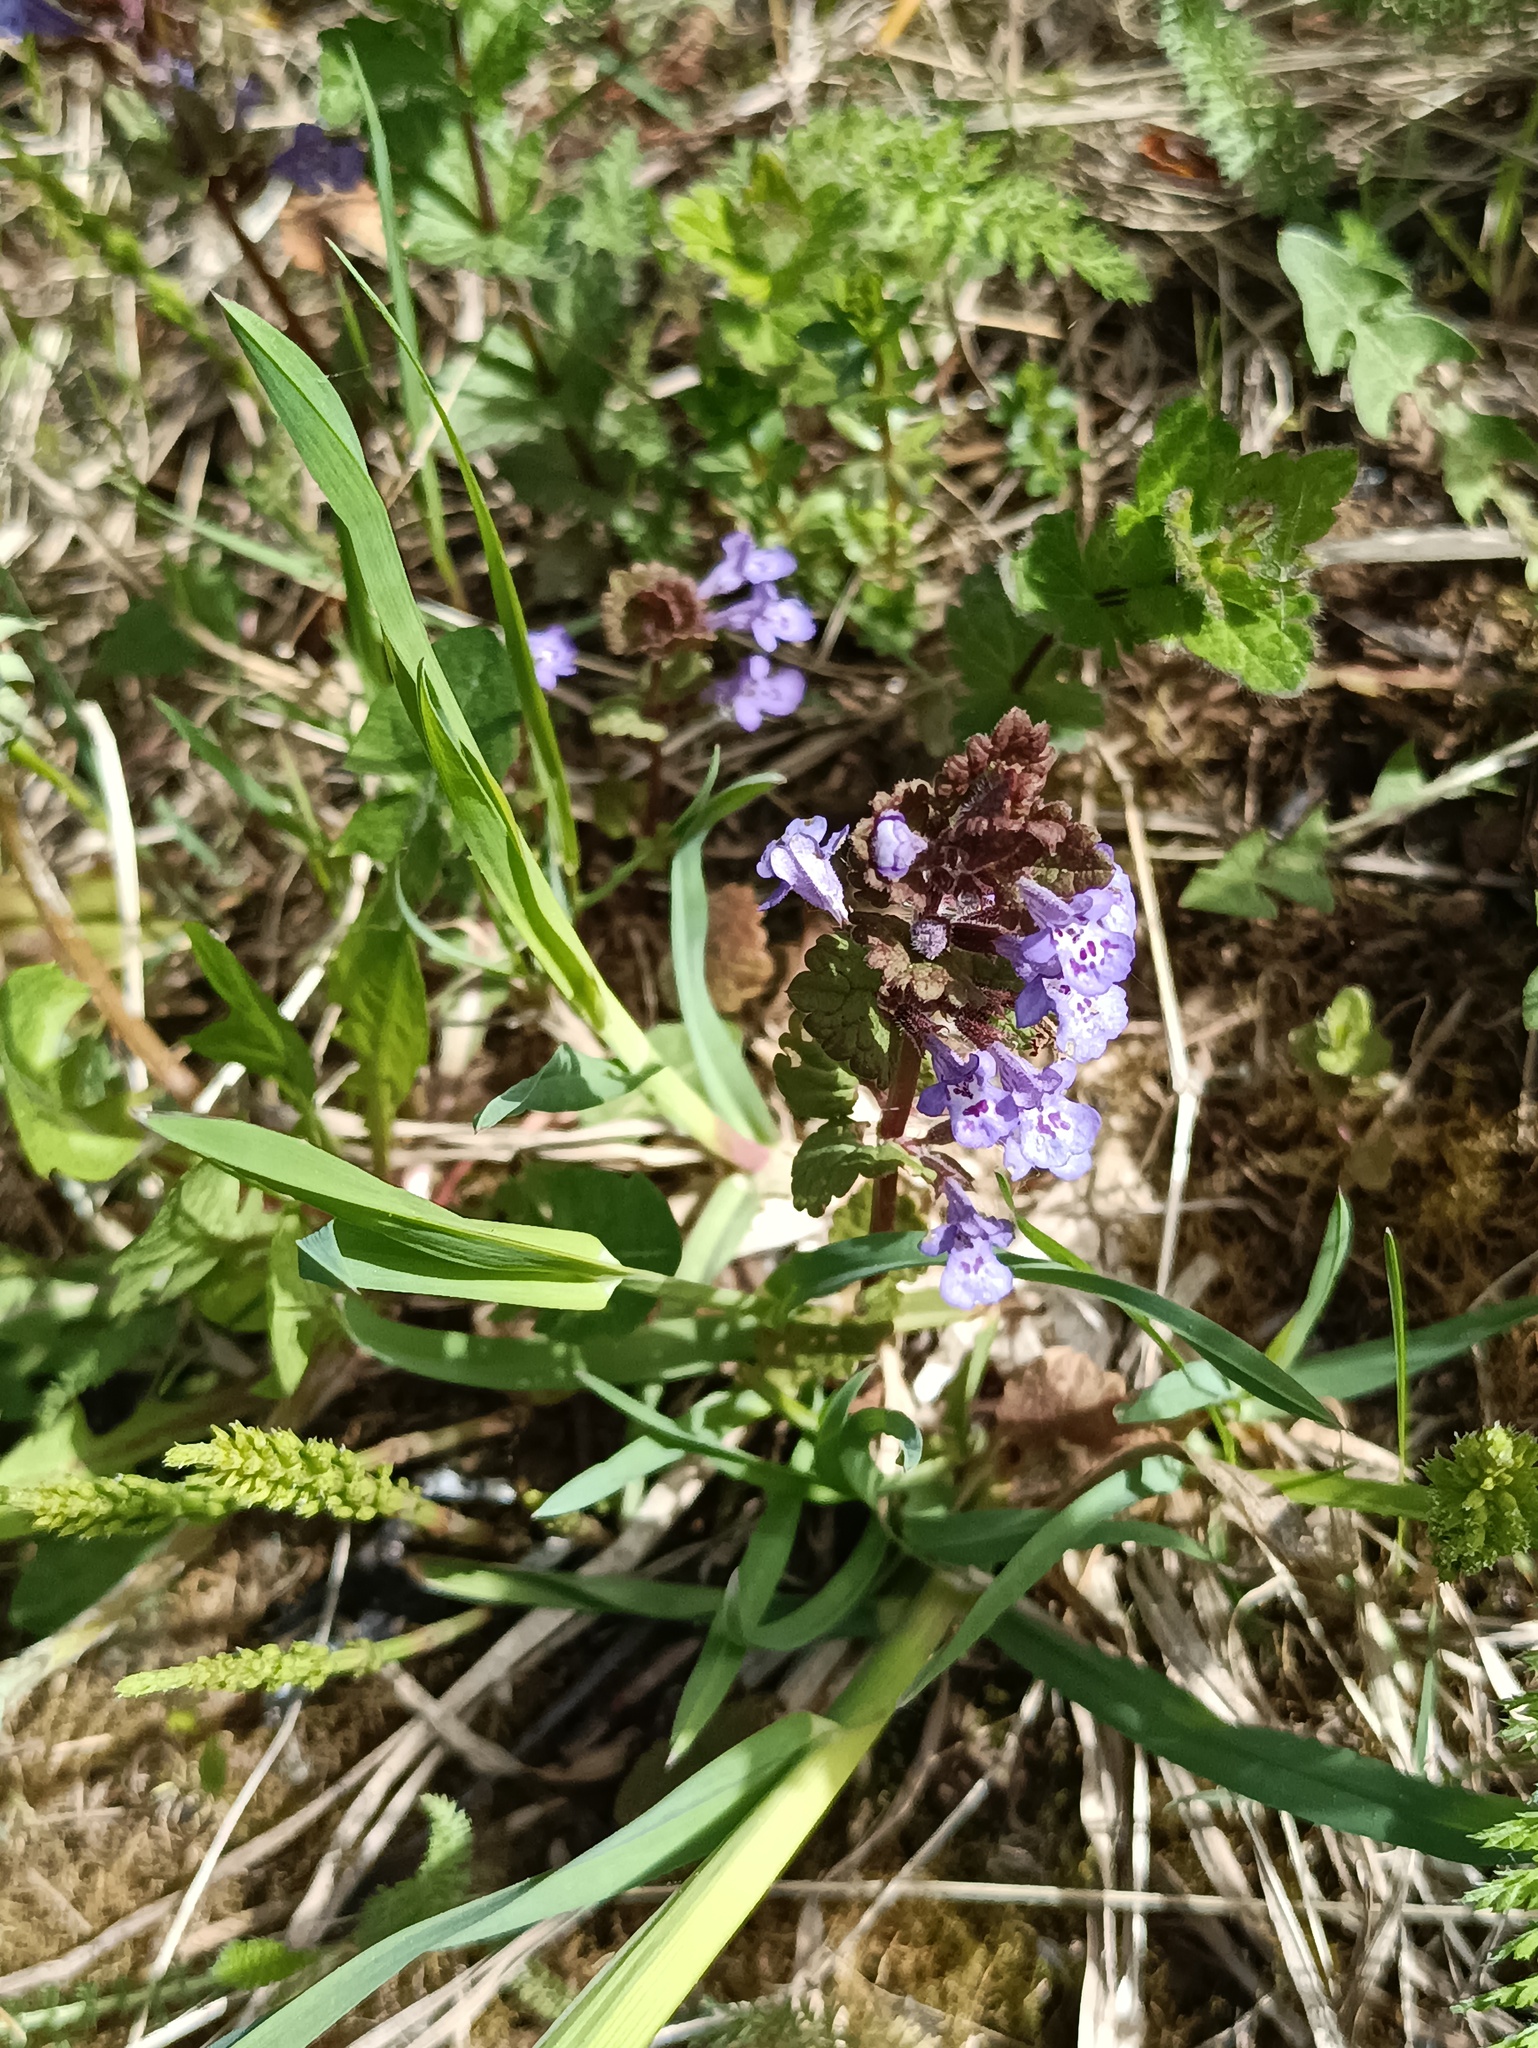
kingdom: Plantae
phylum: Tracheophyta
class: Magnoliopsida
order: Lamiales
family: Lamiaceae
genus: Glechoma
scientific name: Glechoma hederacea
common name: Ground ivy
